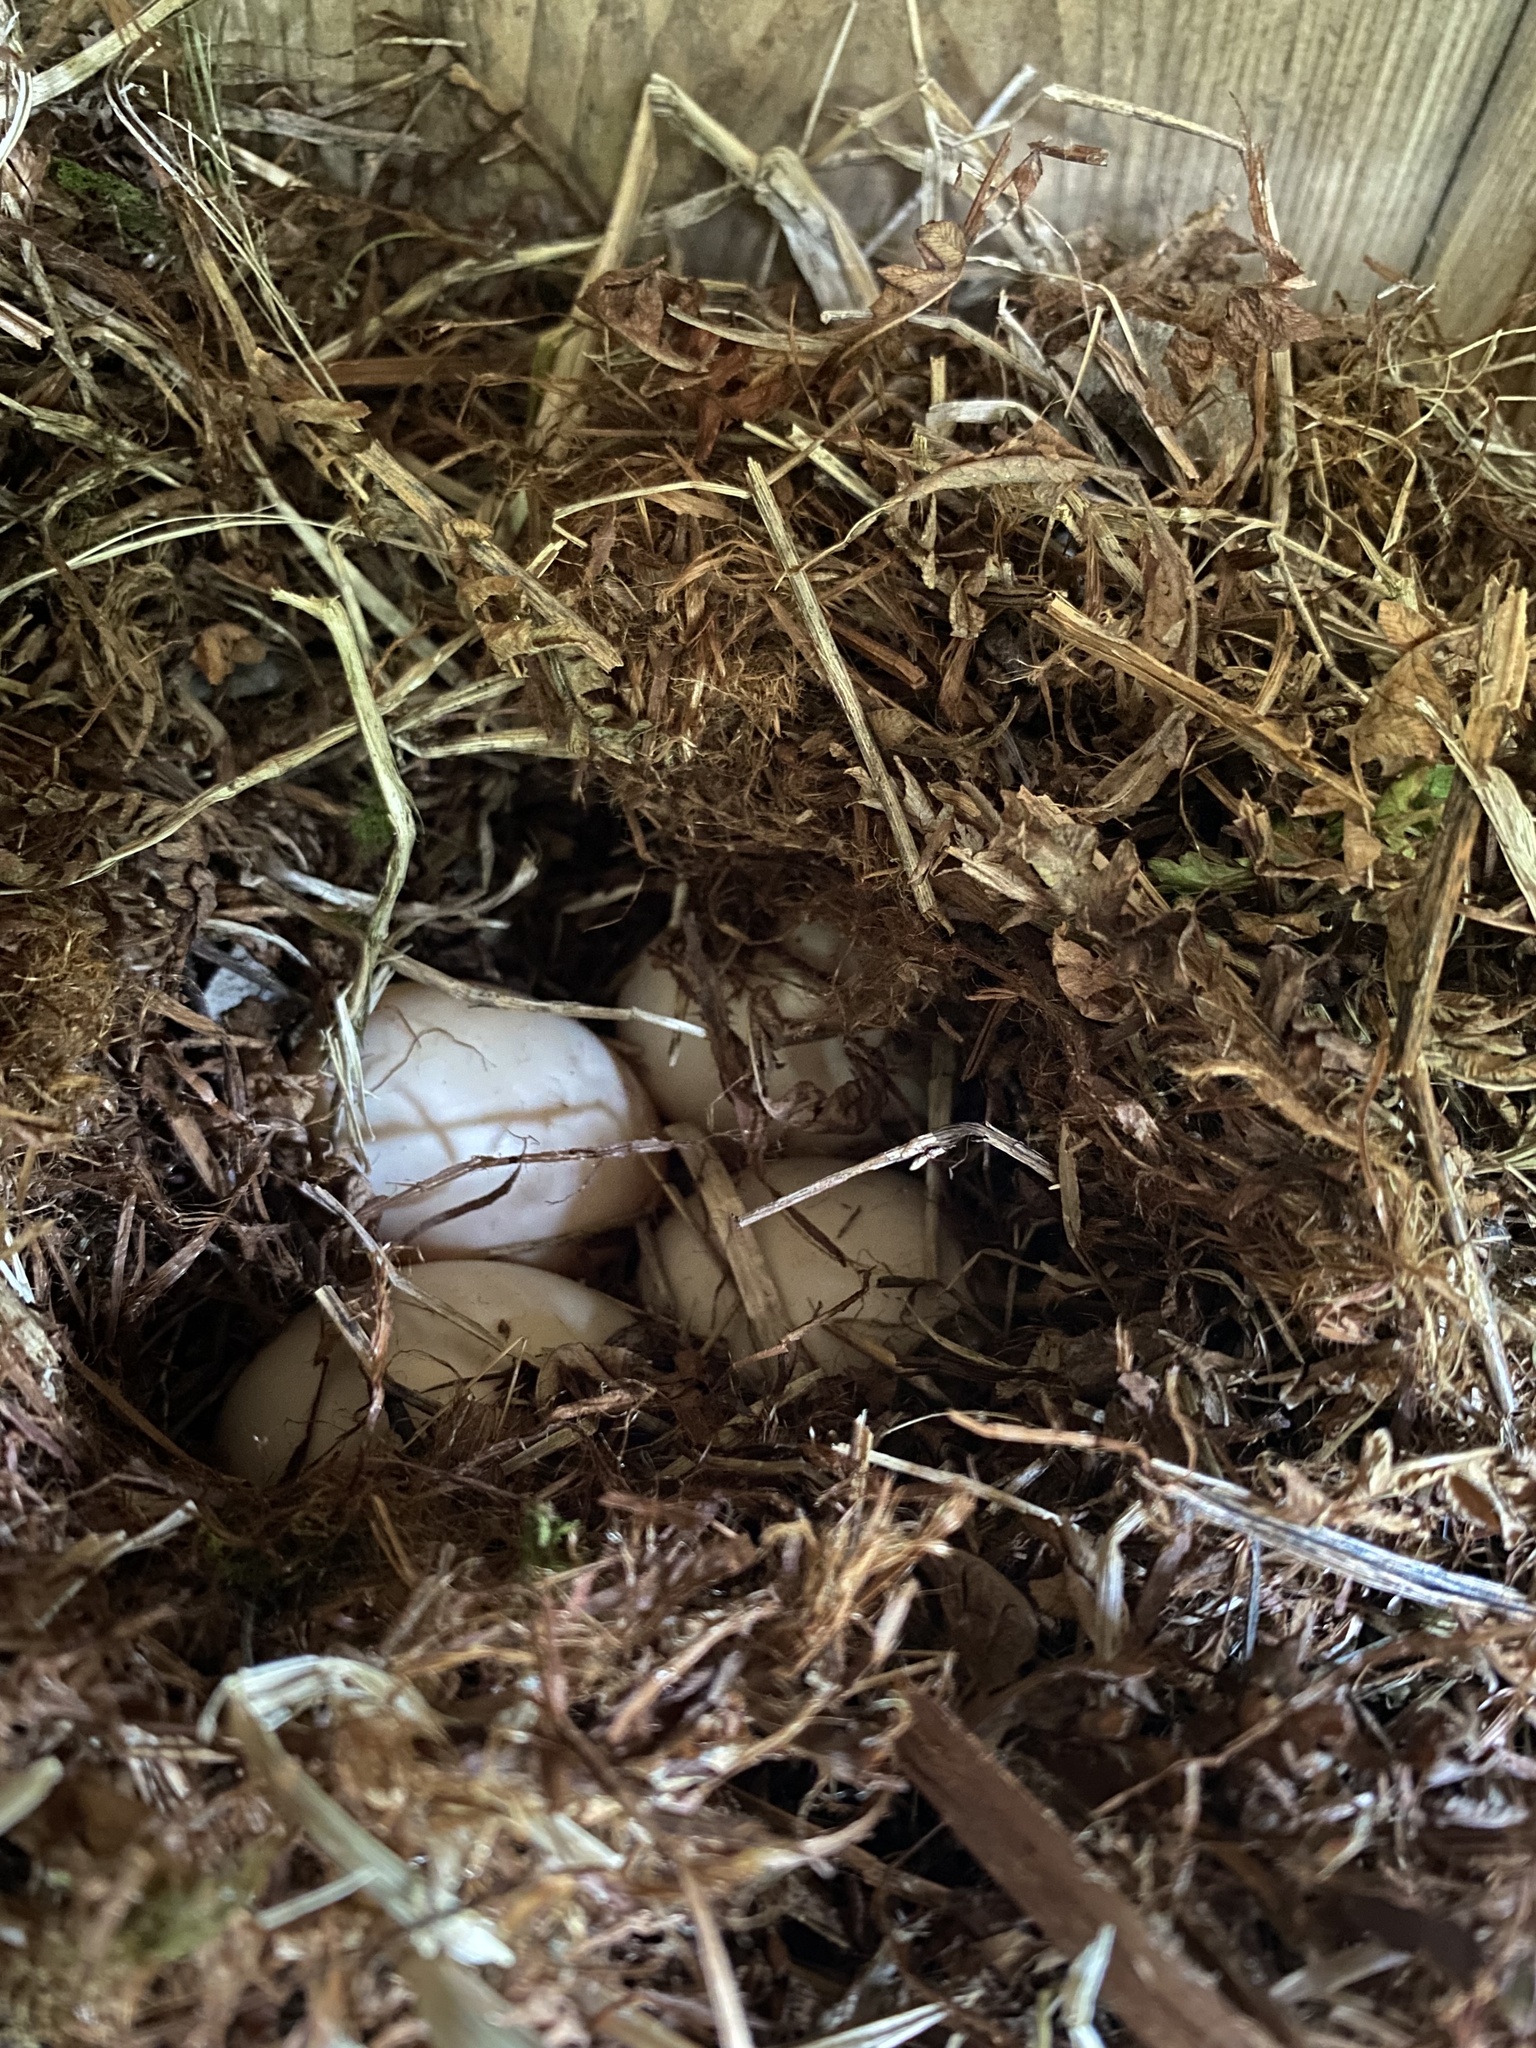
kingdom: Animalia
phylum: Chordata
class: Aves
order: Anseriformes
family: Anatidae
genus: Aix
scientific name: Aix sponsa
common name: Wood duck
